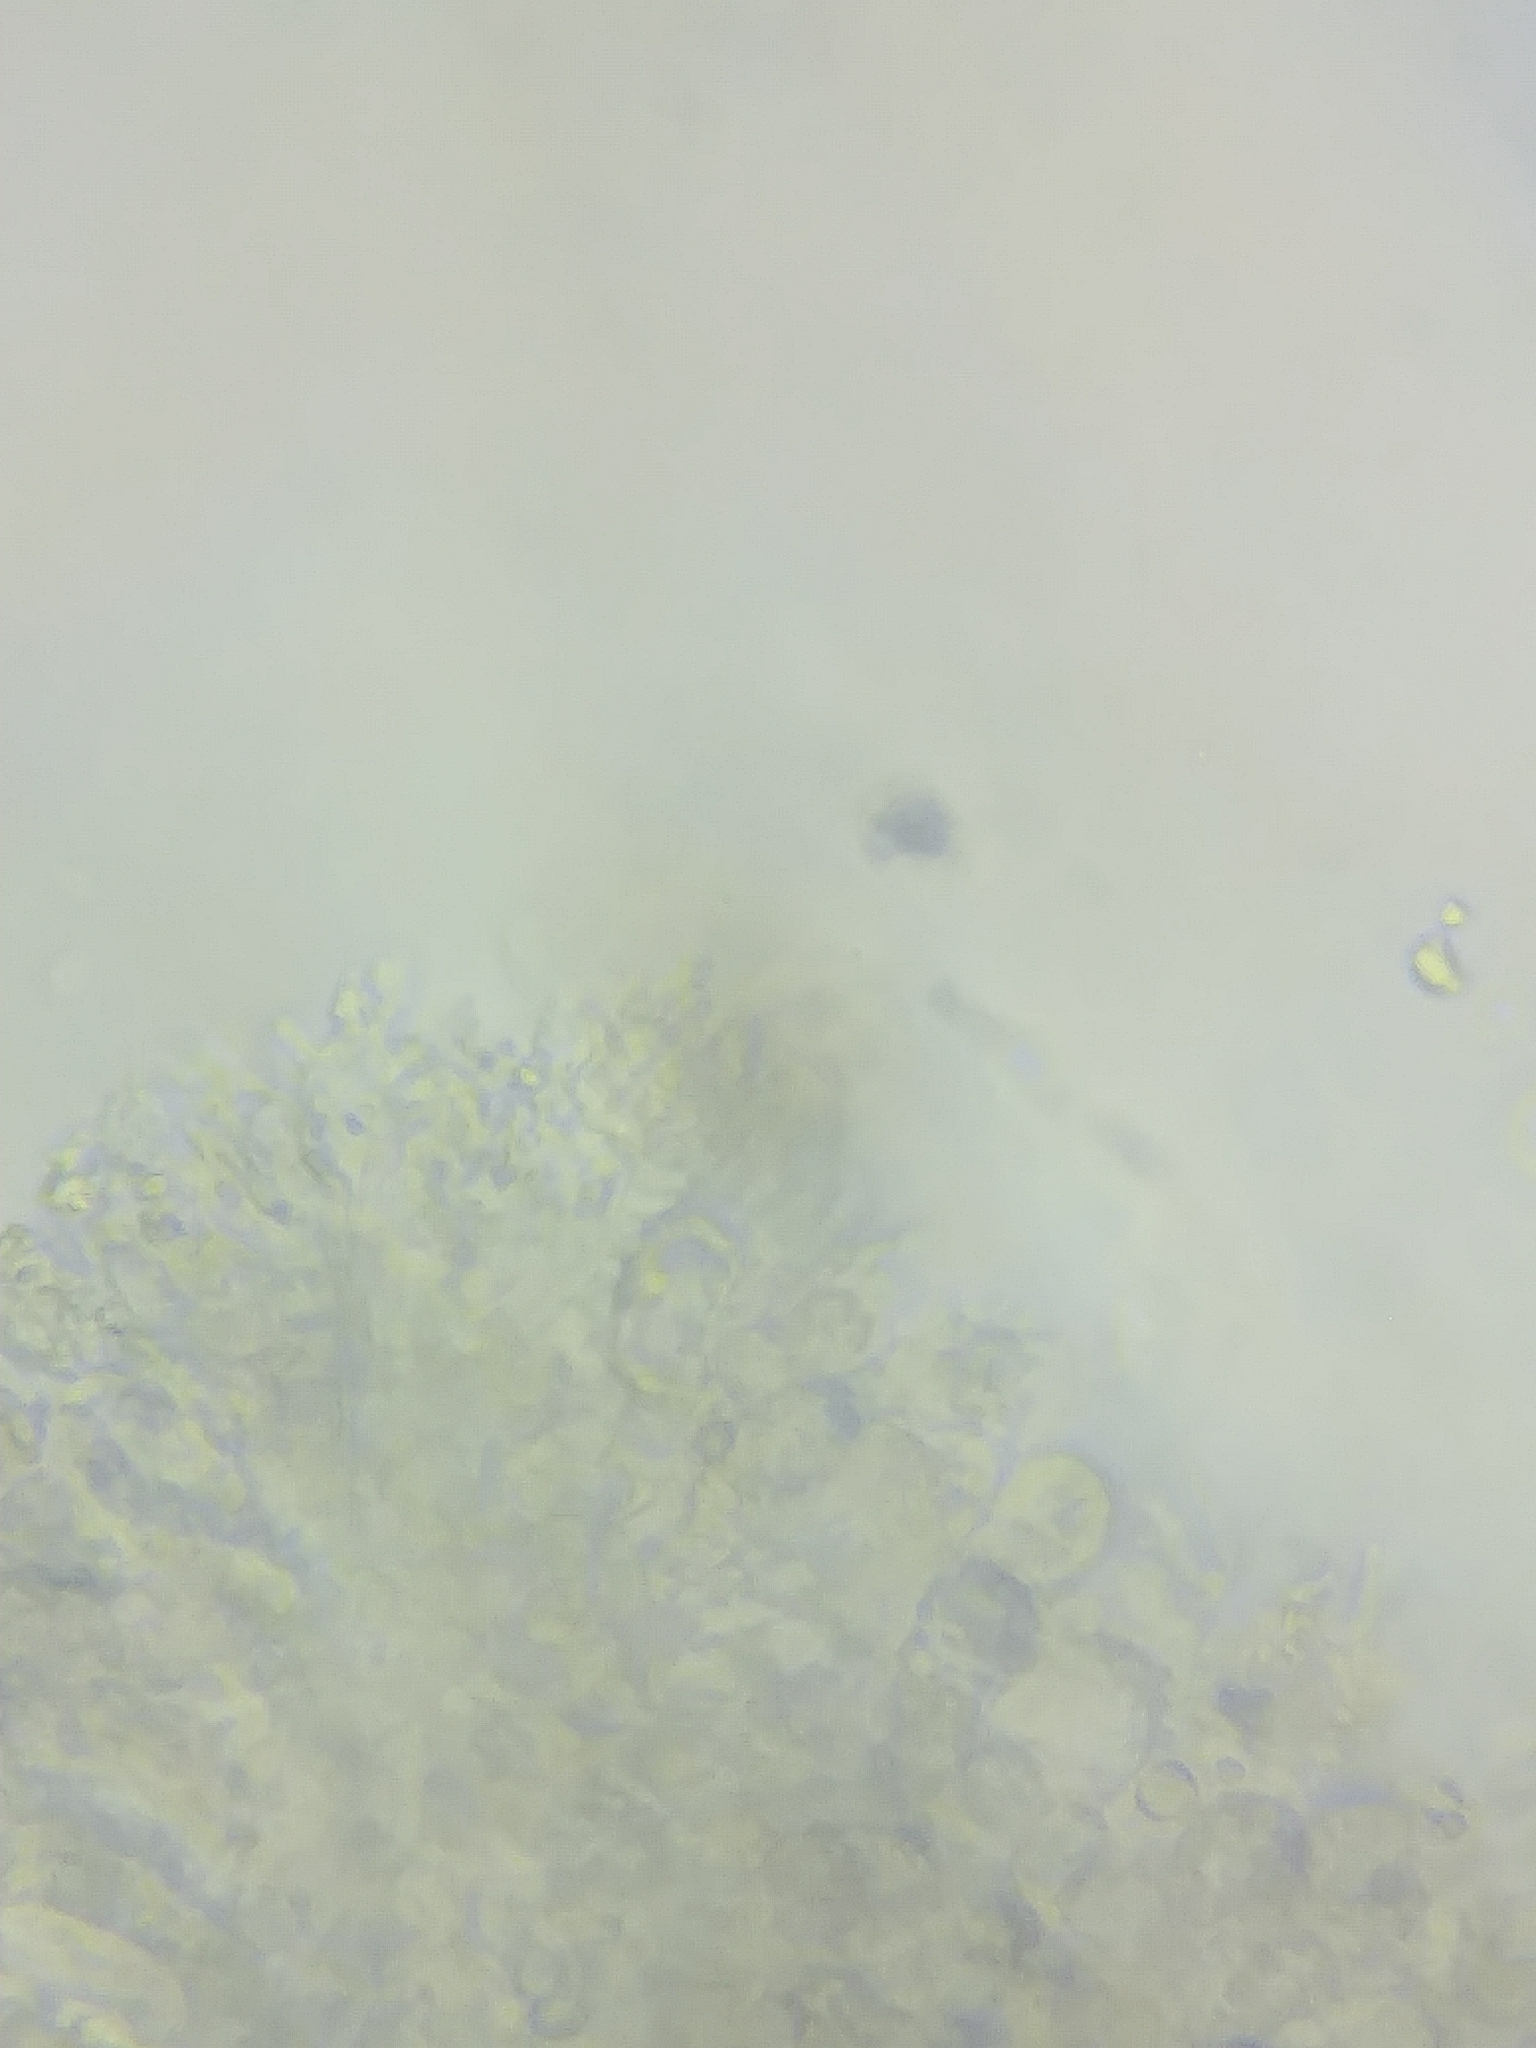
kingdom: Fungi
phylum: Basidiomycota
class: Agaricomycetes
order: Agaricales
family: Mycenaceae
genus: Mycena
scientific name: Mycena galericulata
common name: Bonnet mycena
